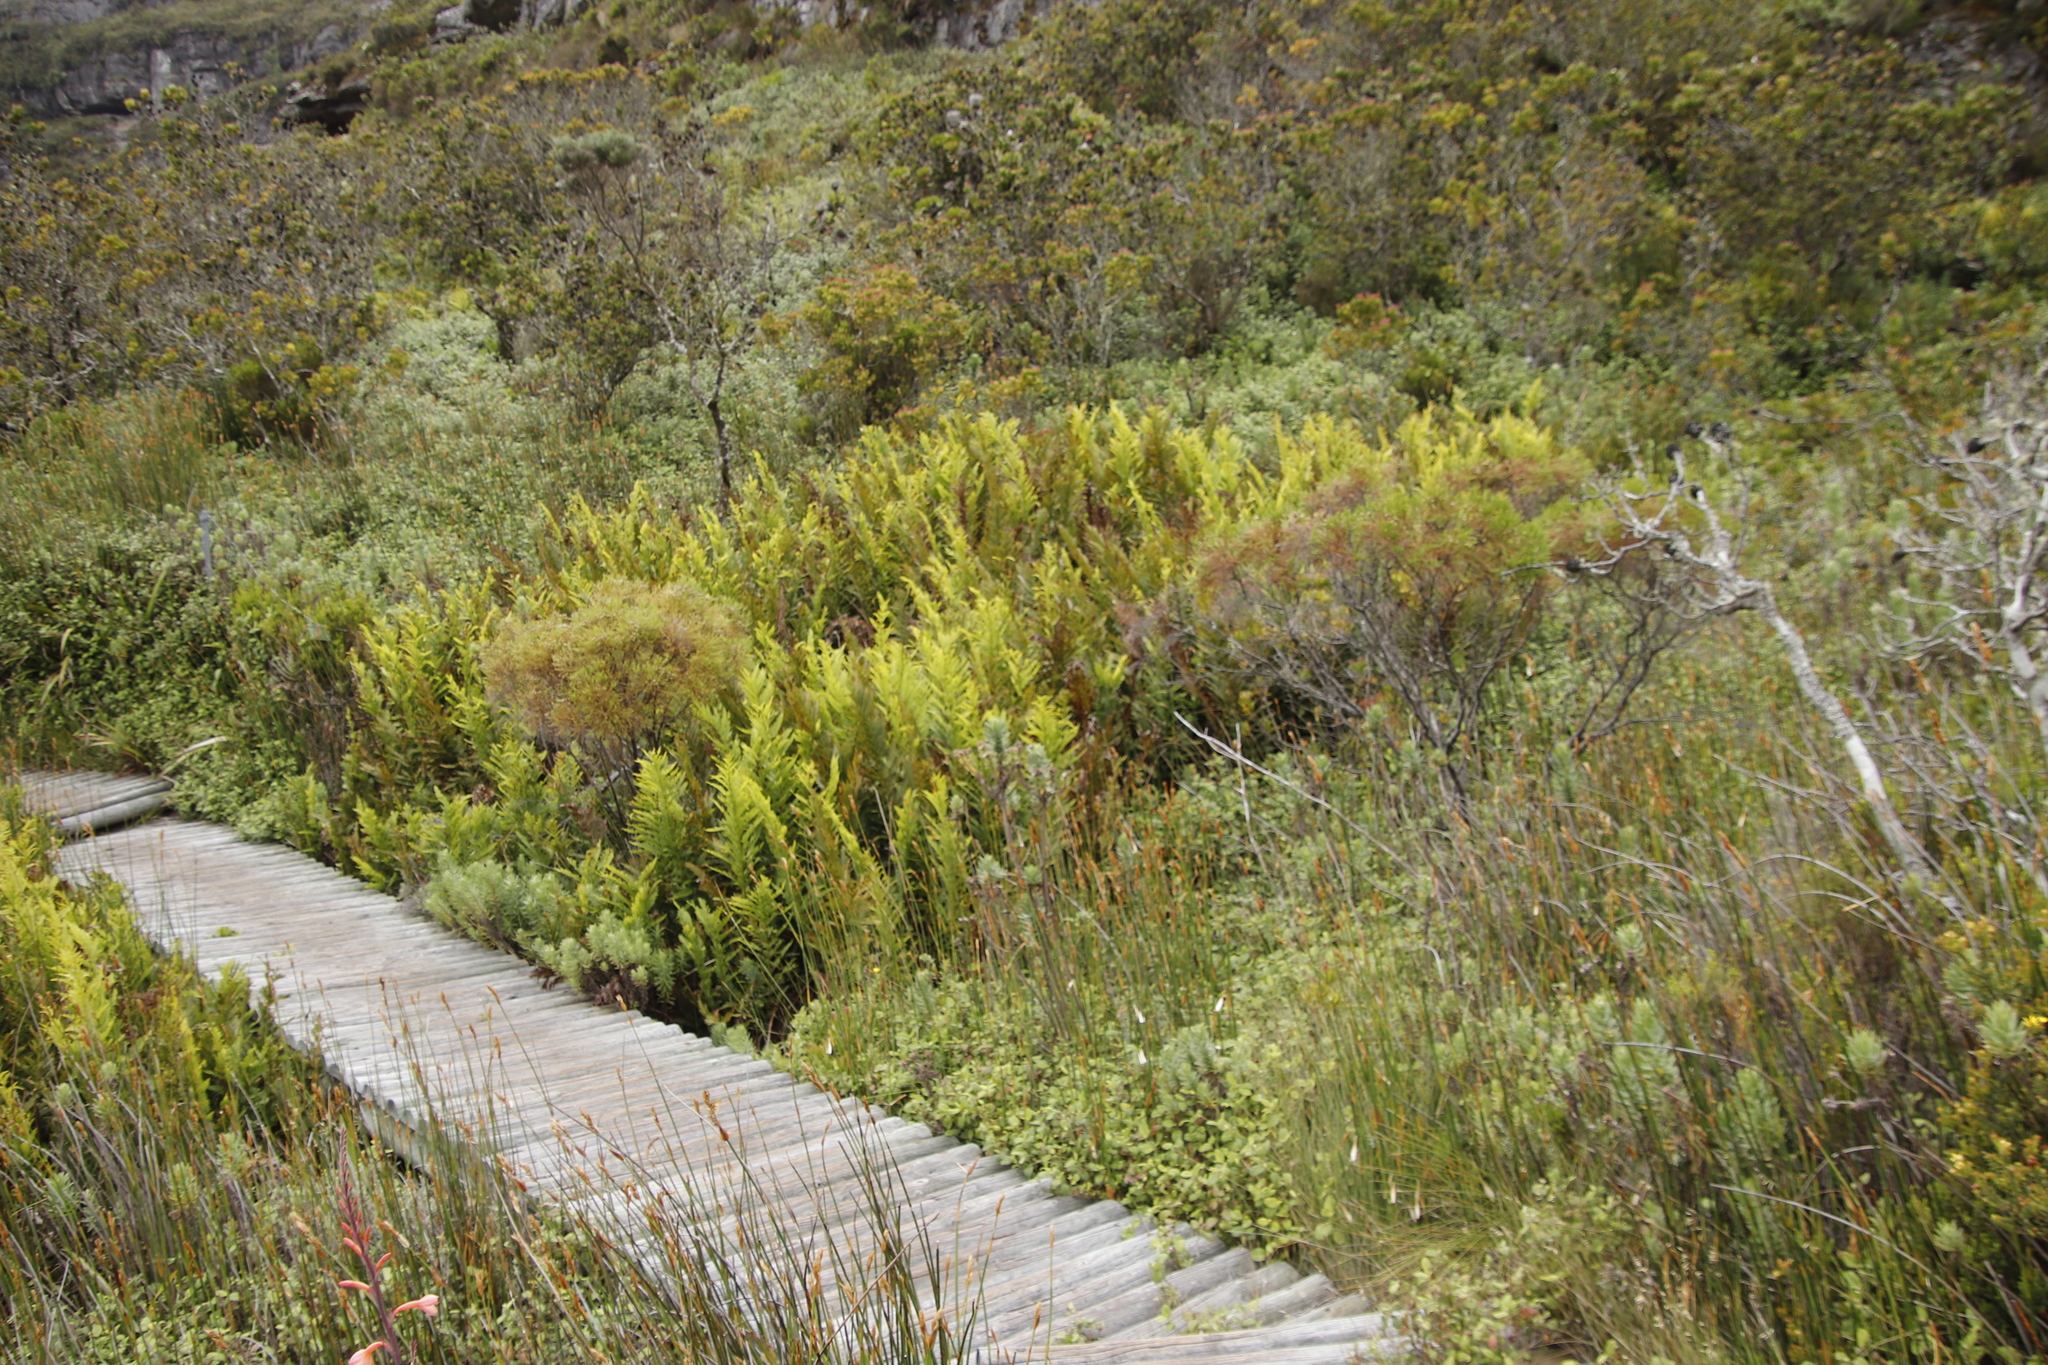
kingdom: Plantae
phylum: Tracheophyta
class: Polypodiopsida
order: Osmundales
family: Osmundaceae
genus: Todea
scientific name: Todea barbara
